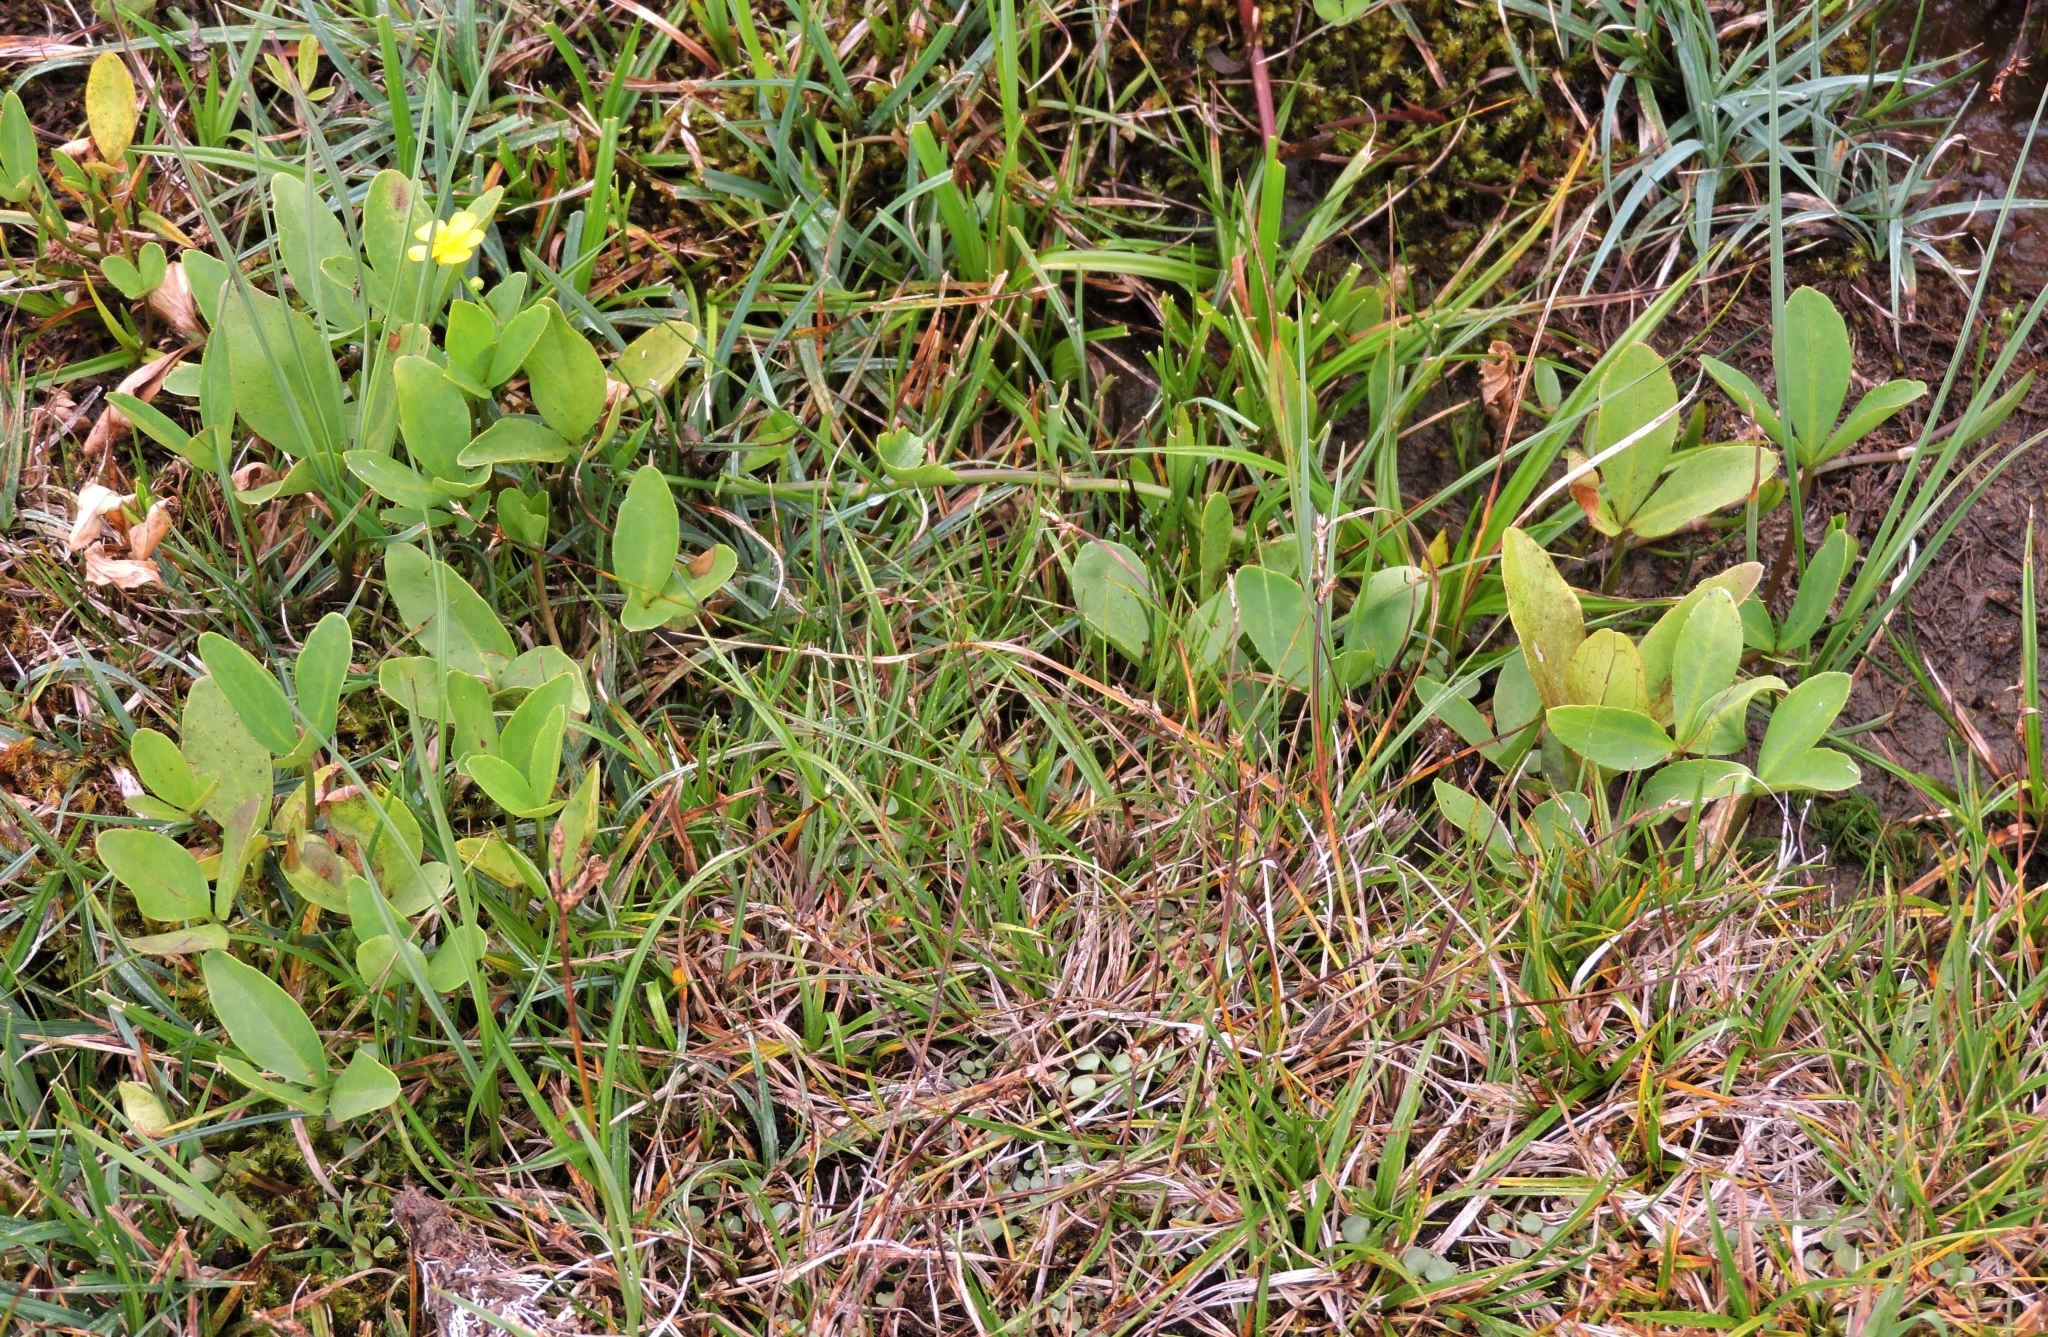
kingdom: Plantae
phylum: Tracheophyta
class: Magnoliopsida
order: Asterales
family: Menyanthaceae
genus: Menyanthes
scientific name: Menyanthes trifoliata
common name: Bogbean
